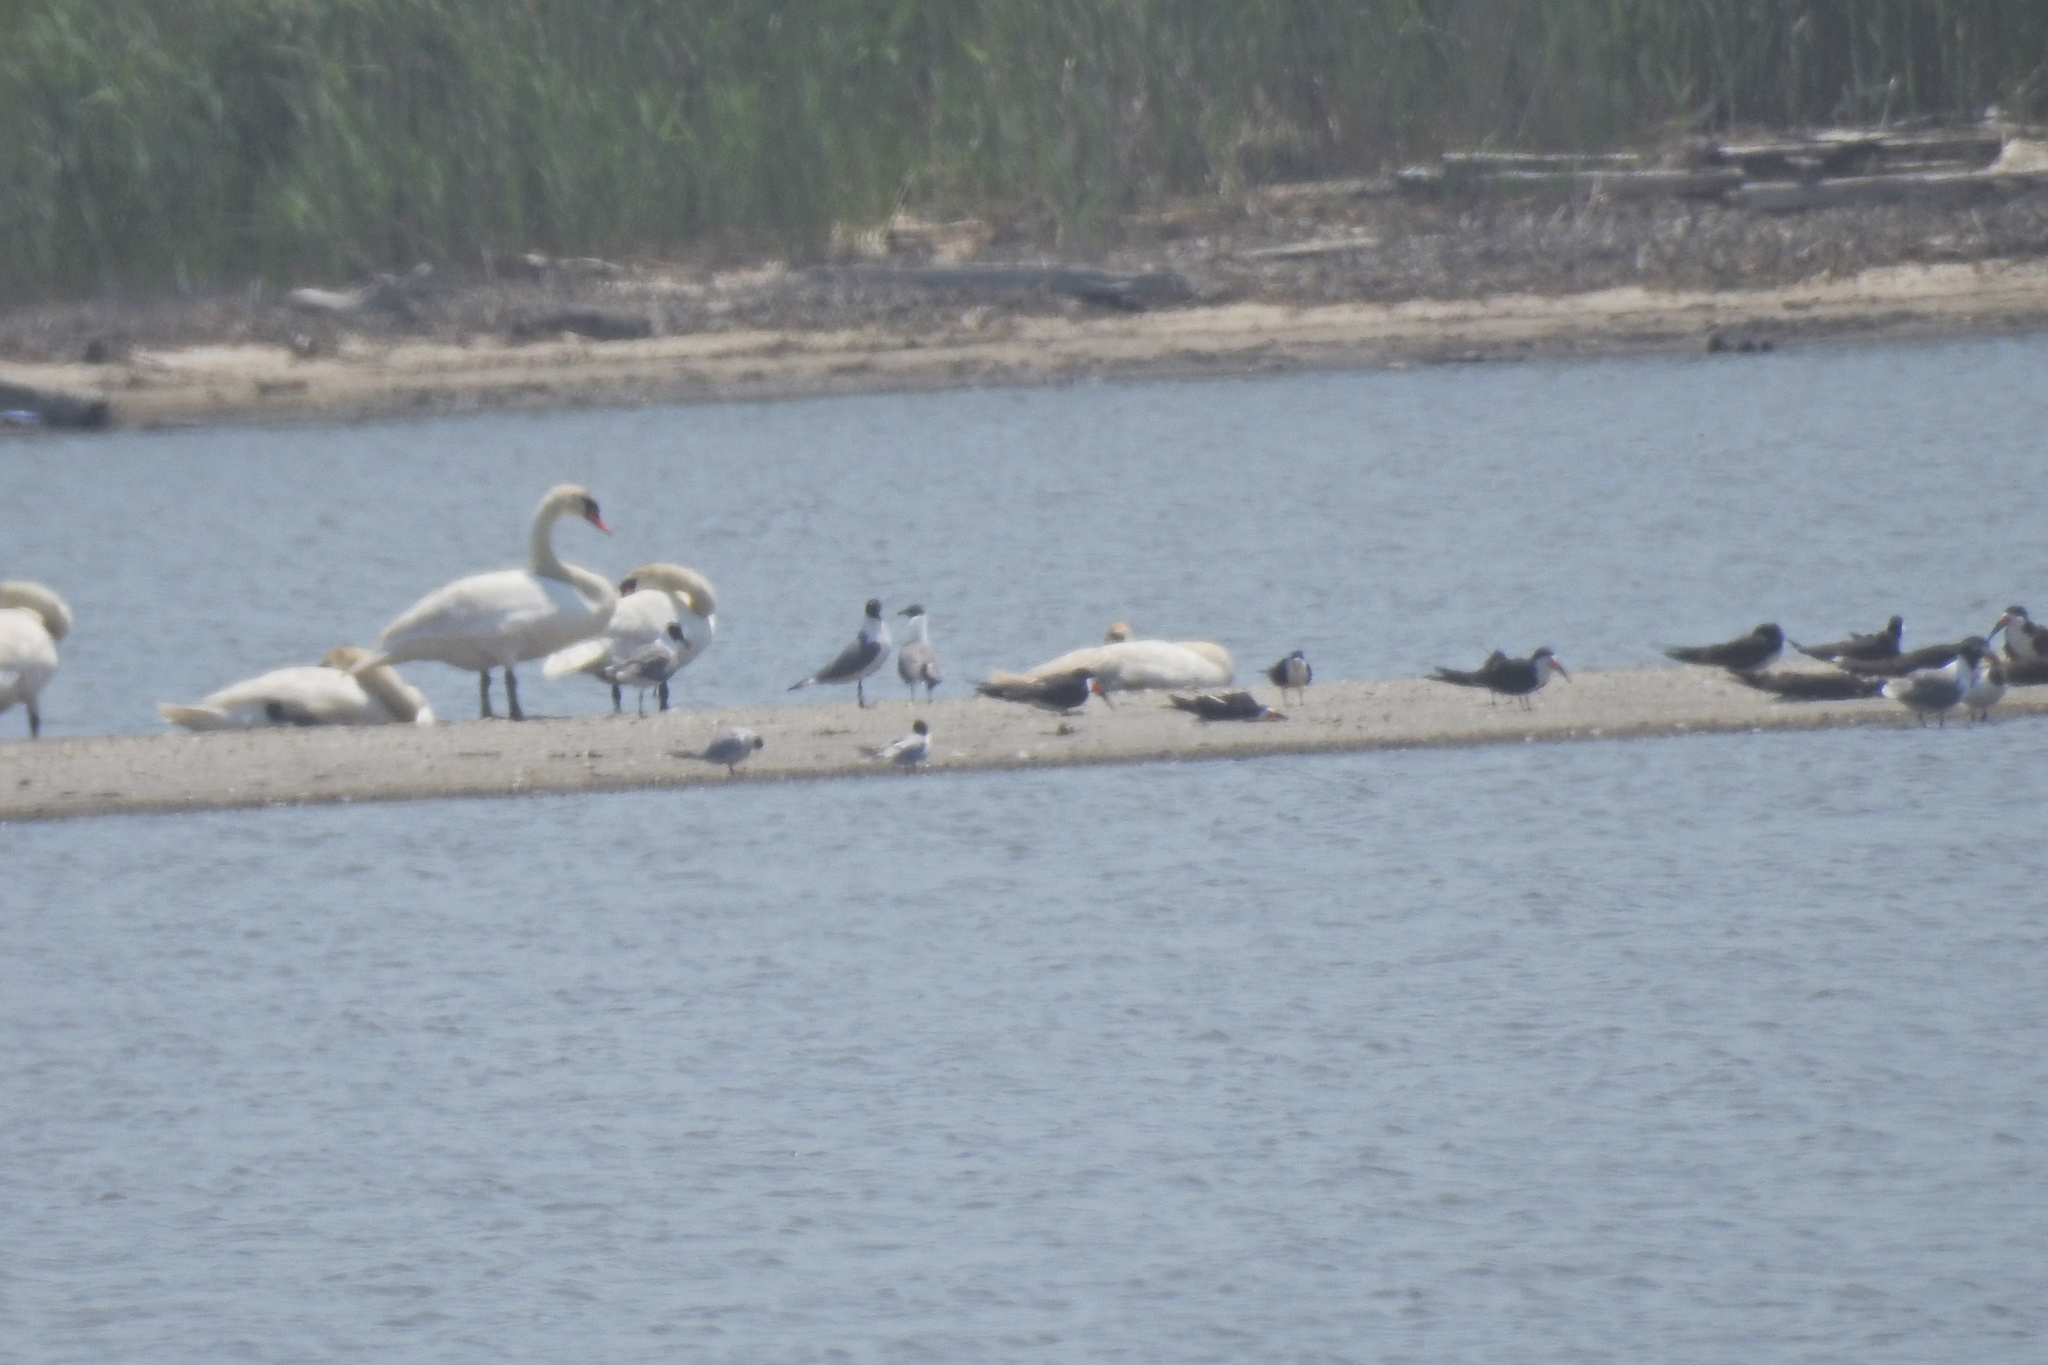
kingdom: Animalia
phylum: Chordata
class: Aves
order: Charadriiformes
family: Laridae
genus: Leucophaeus
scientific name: Leucophaeus atricilla
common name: Laughing gull
